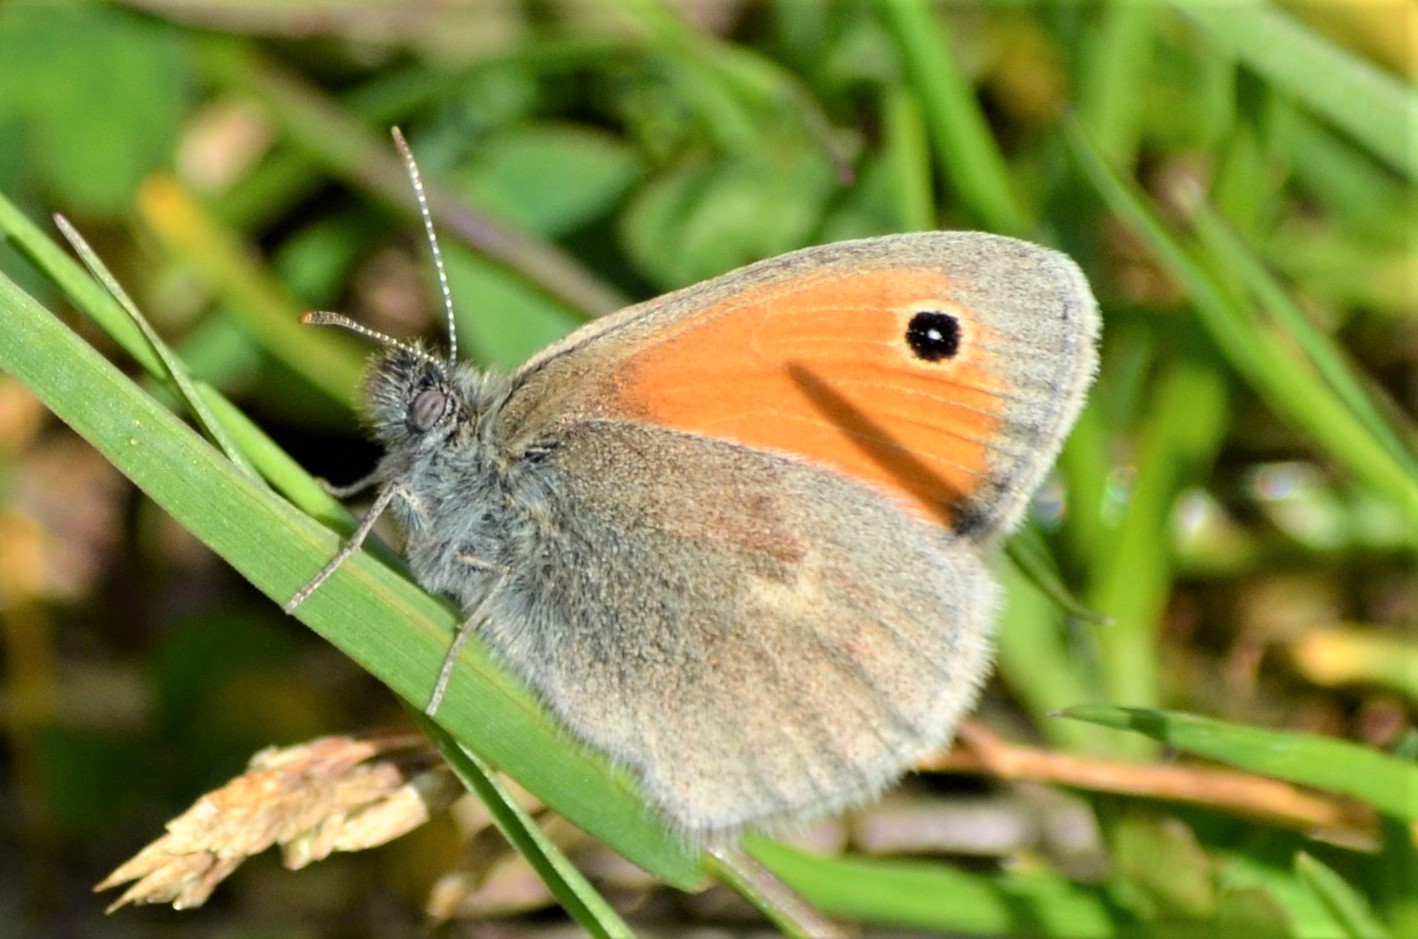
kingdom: Animalia
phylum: Arthropoda
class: Insecta
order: Lepidoptera
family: Nymphalidae
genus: Coenonympha
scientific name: Coenonympha pamphilus
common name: Small heath
